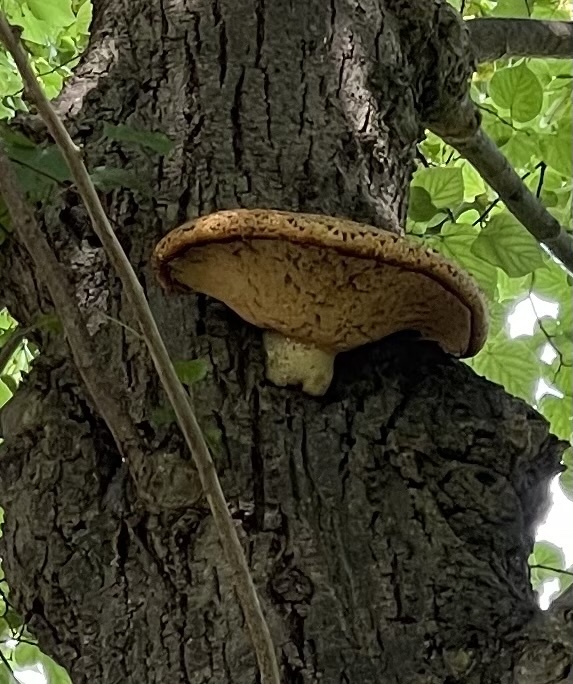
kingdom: Fungi
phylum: Basidiomycota
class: Agaricomycetes
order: Polyporales
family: Polyporaceae
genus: Cerioporus
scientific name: Cerioporus squamosus
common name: Dryad's saddle
